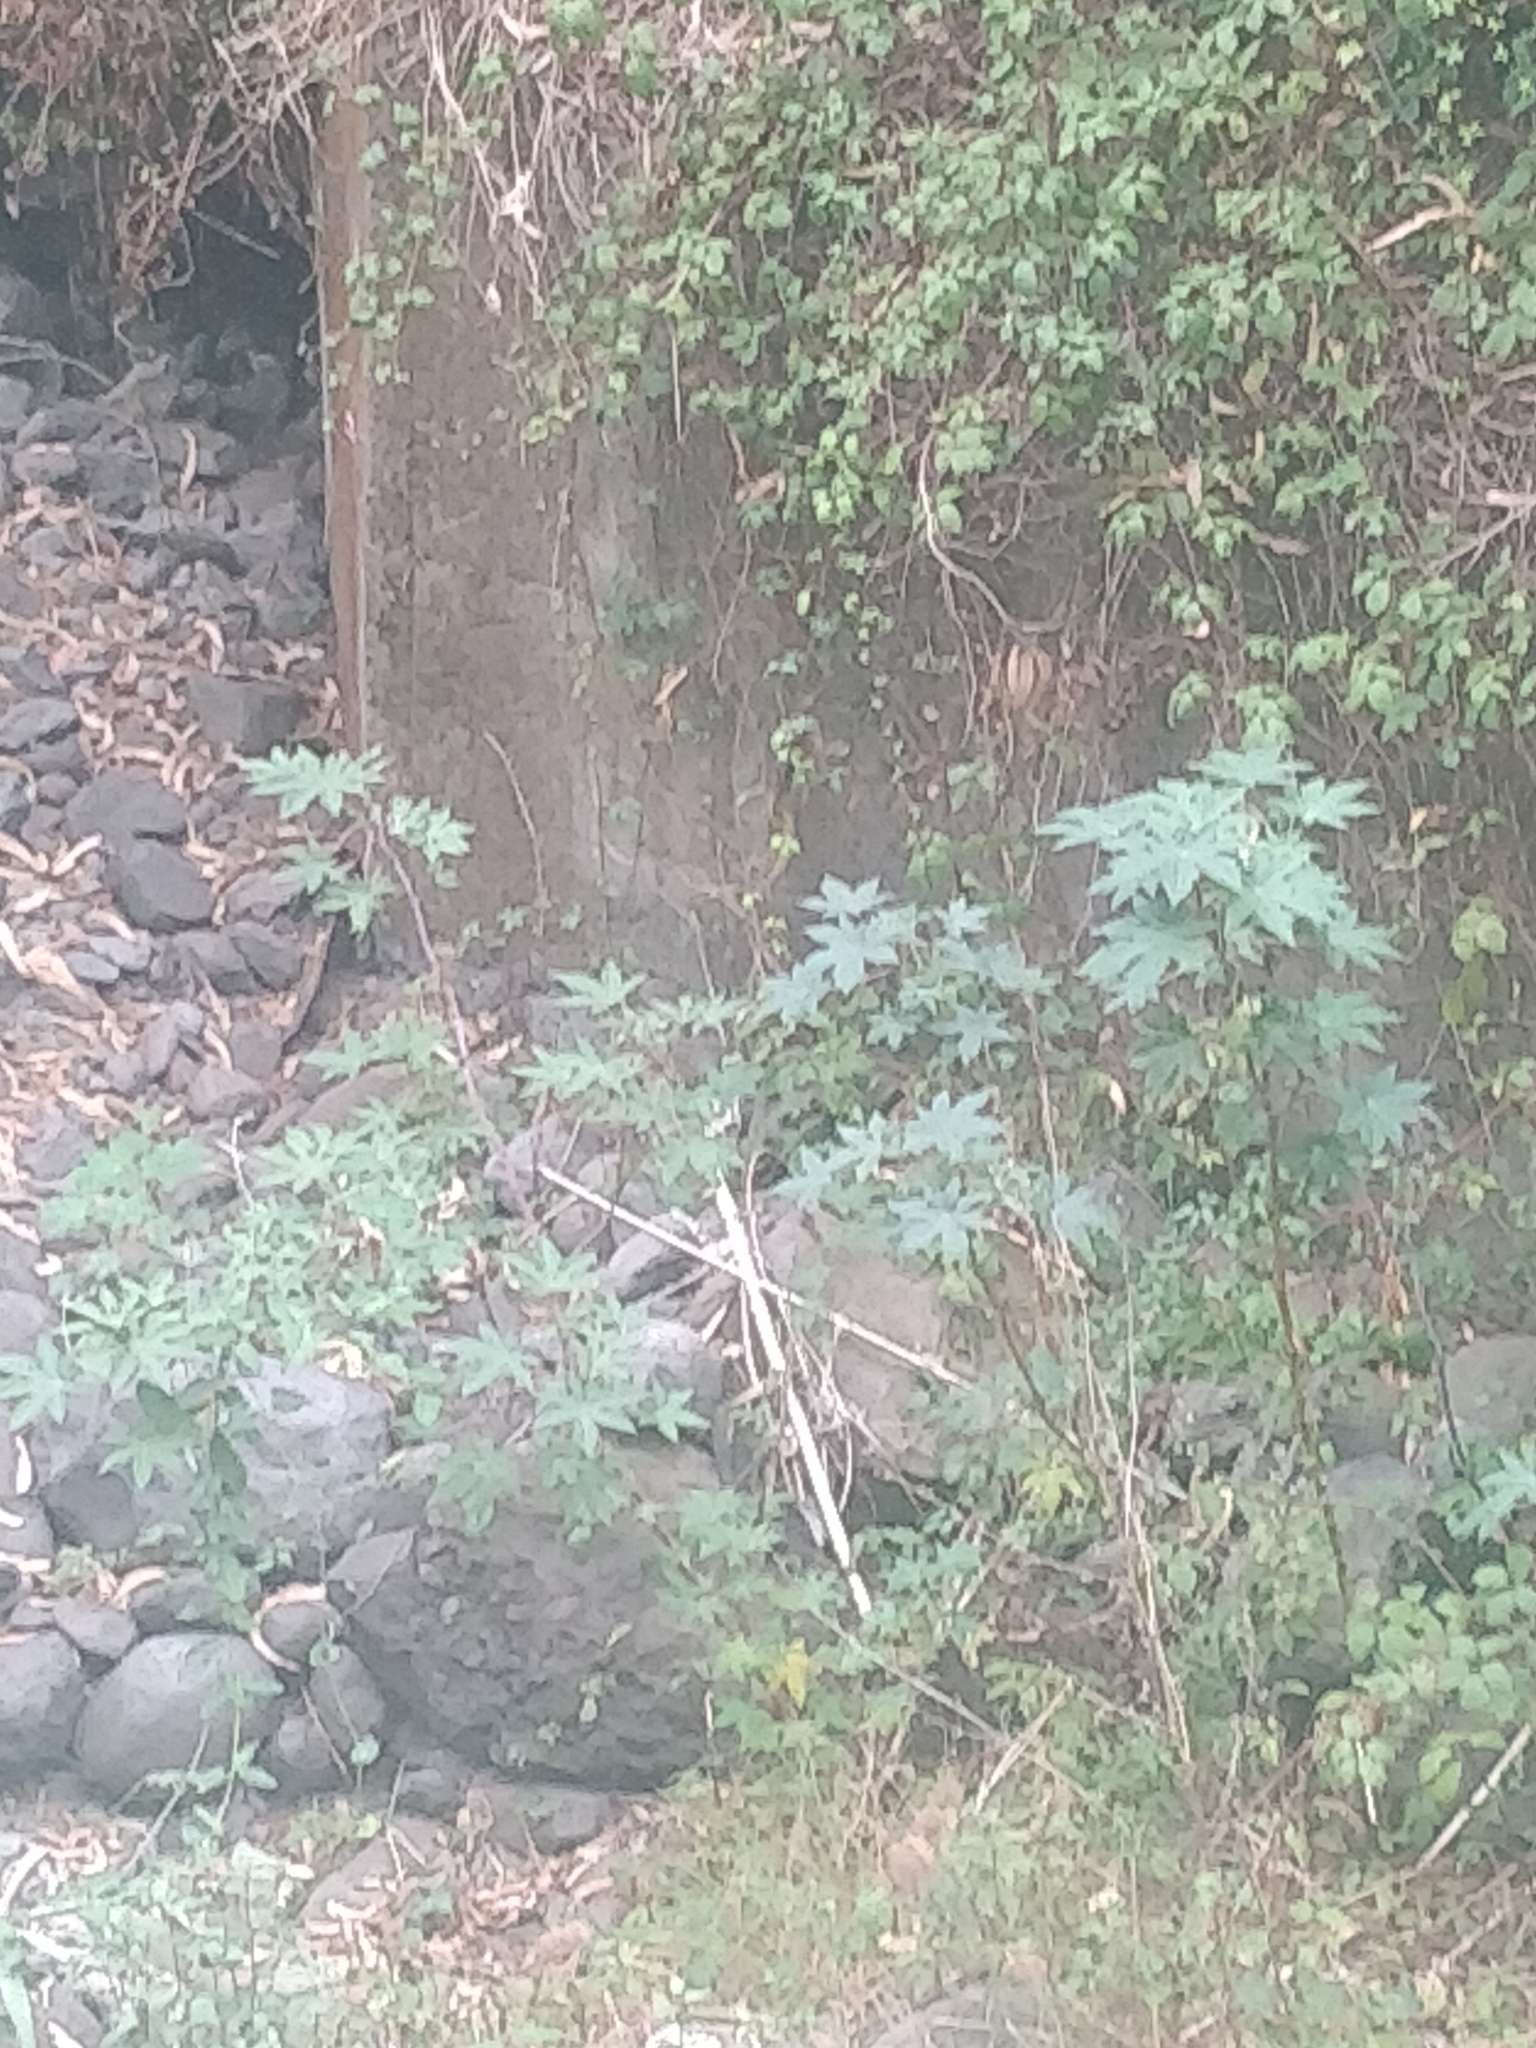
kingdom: Plantae
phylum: Tracheophyta
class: Magnoliopsida
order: Malpighiales
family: Euphorbiaceae
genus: Ricinus
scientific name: Ricinus communis
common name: Castor-oil-plant
